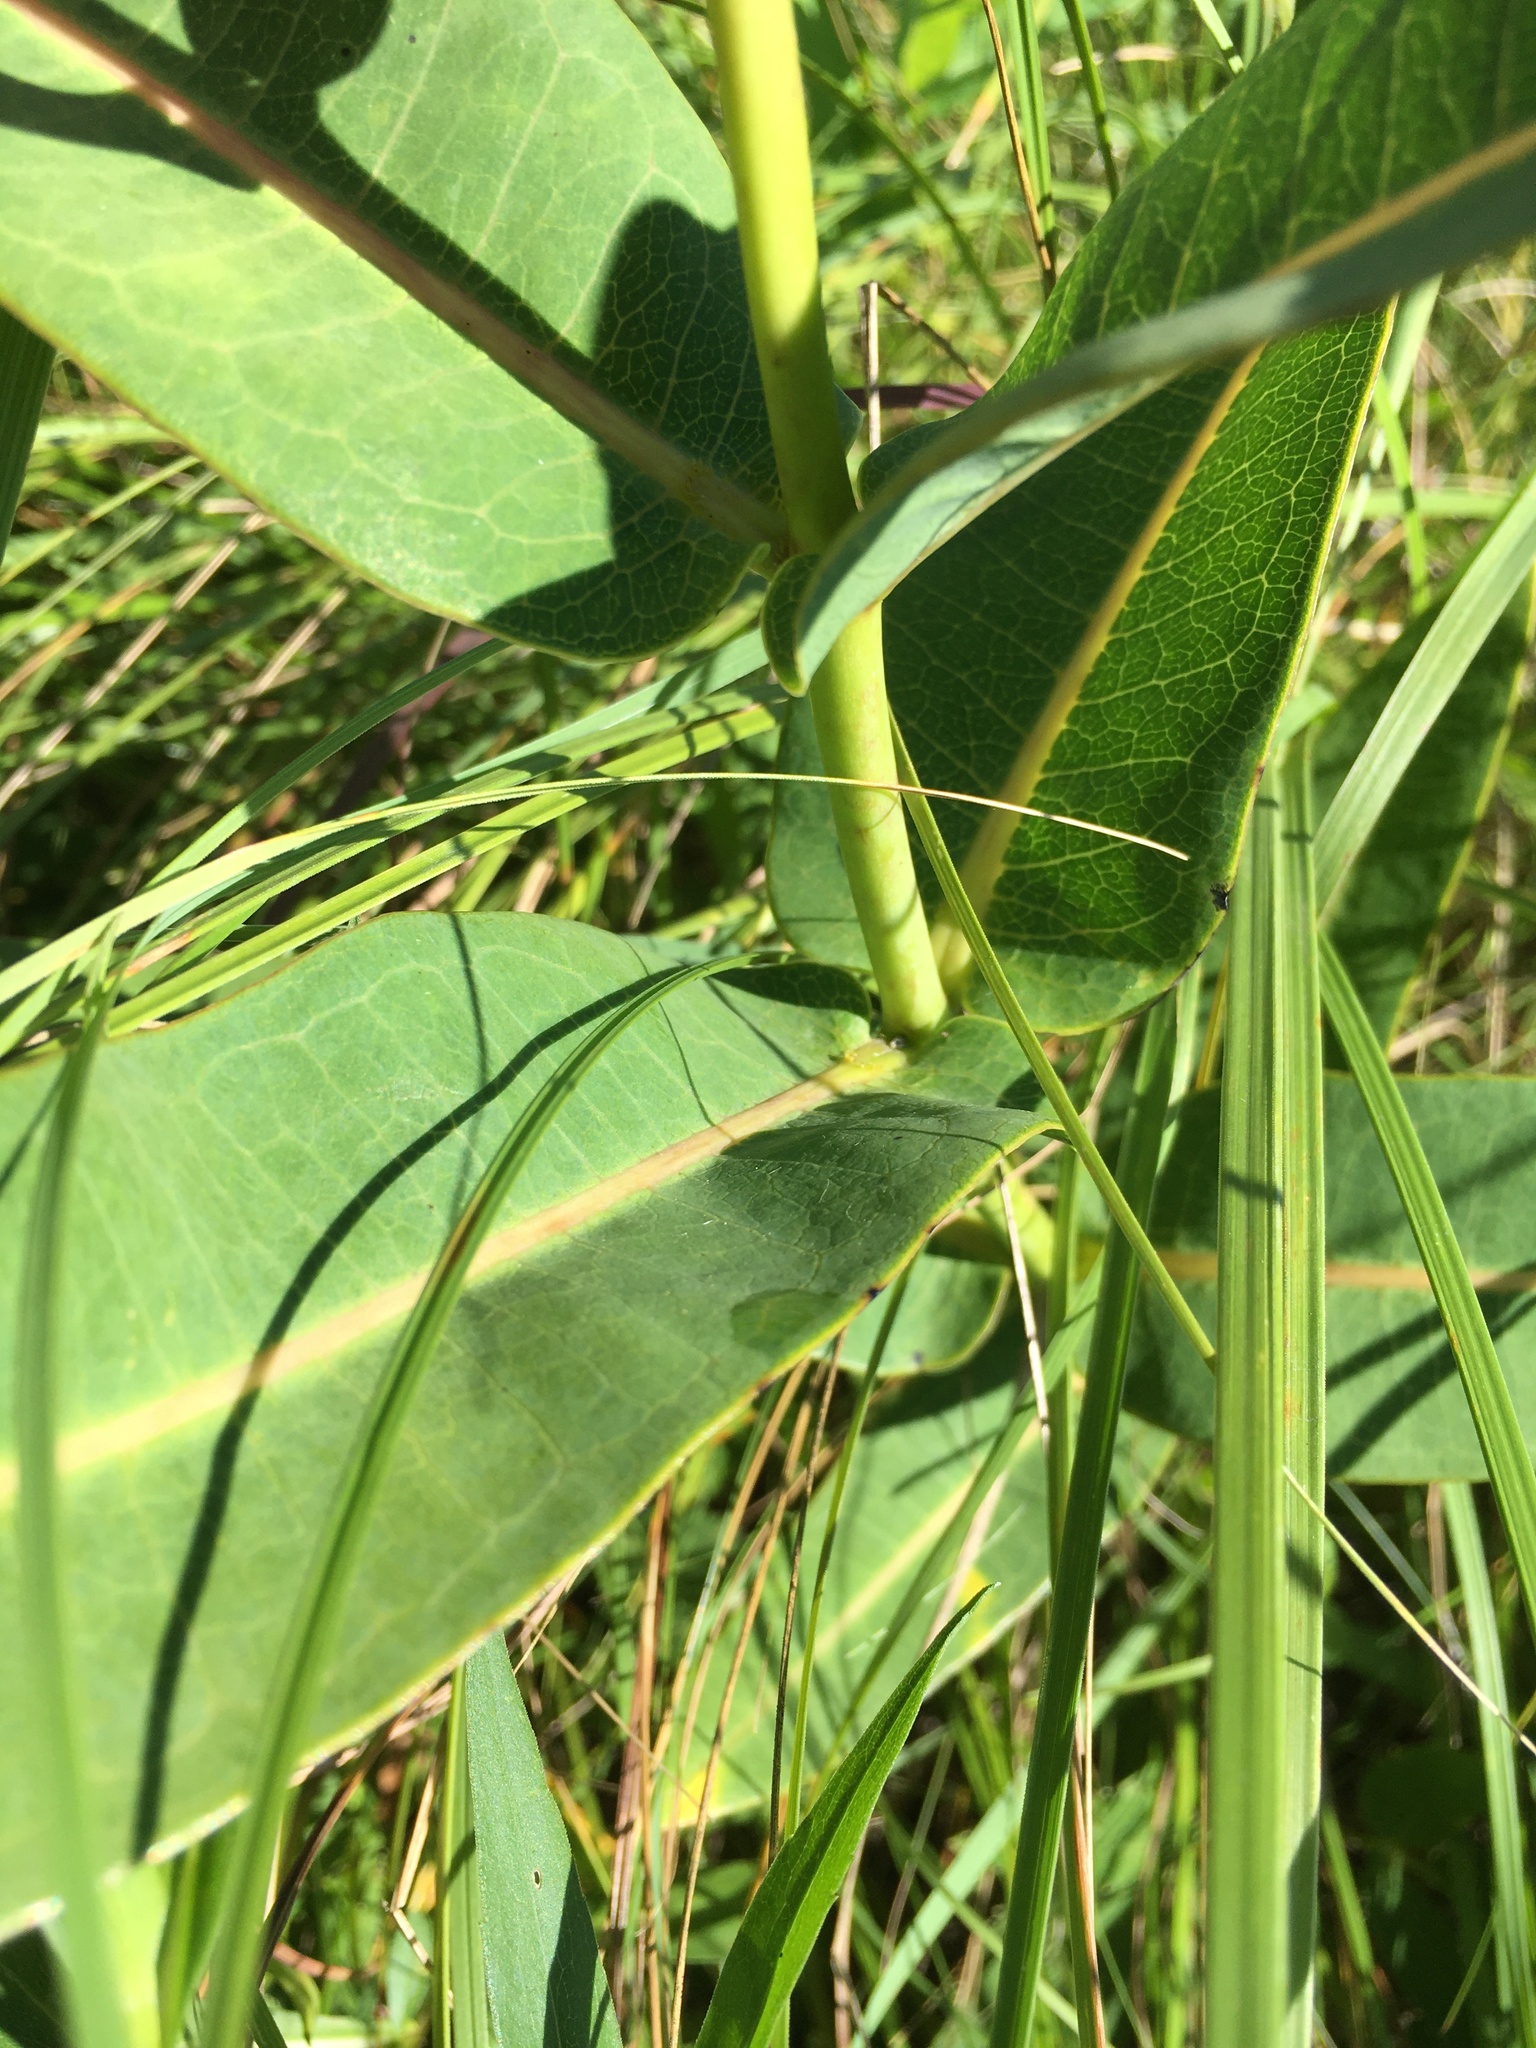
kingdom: Plantae
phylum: Tracheophyta
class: Magnoliopsida
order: Gentianales
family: Apocynaceae
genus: Asclepias
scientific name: Asclepias sullivantii
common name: Prairie milkweed
